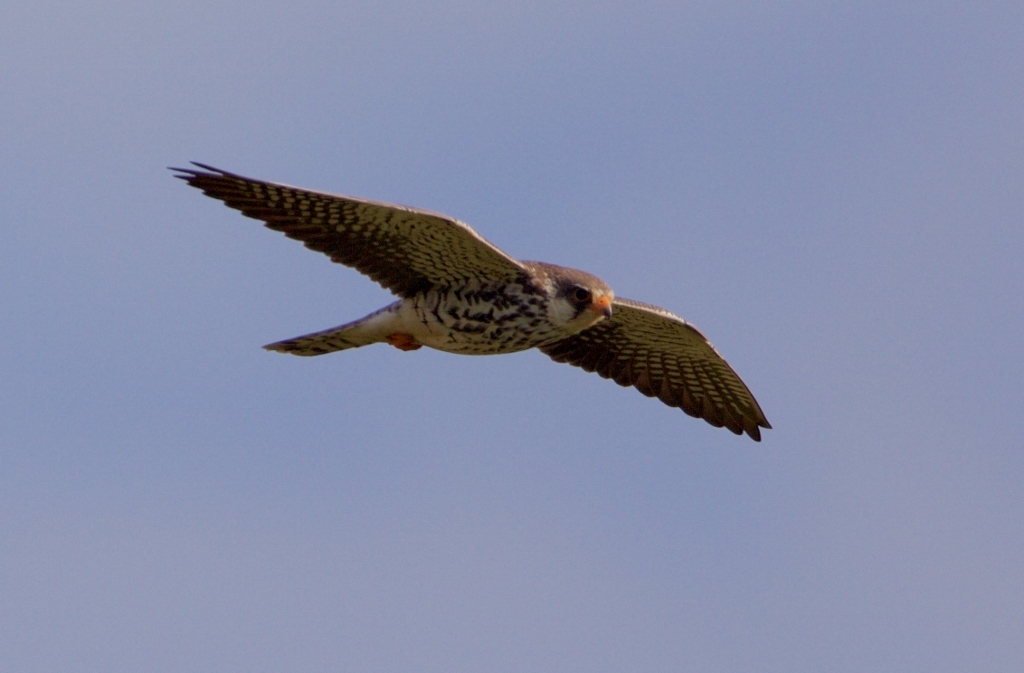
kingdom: Animalia
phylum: Chordata
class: Aves
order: Falconiformes
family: Falconidae
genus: Falco
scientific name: Falco amurensis
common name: Amur falcon
